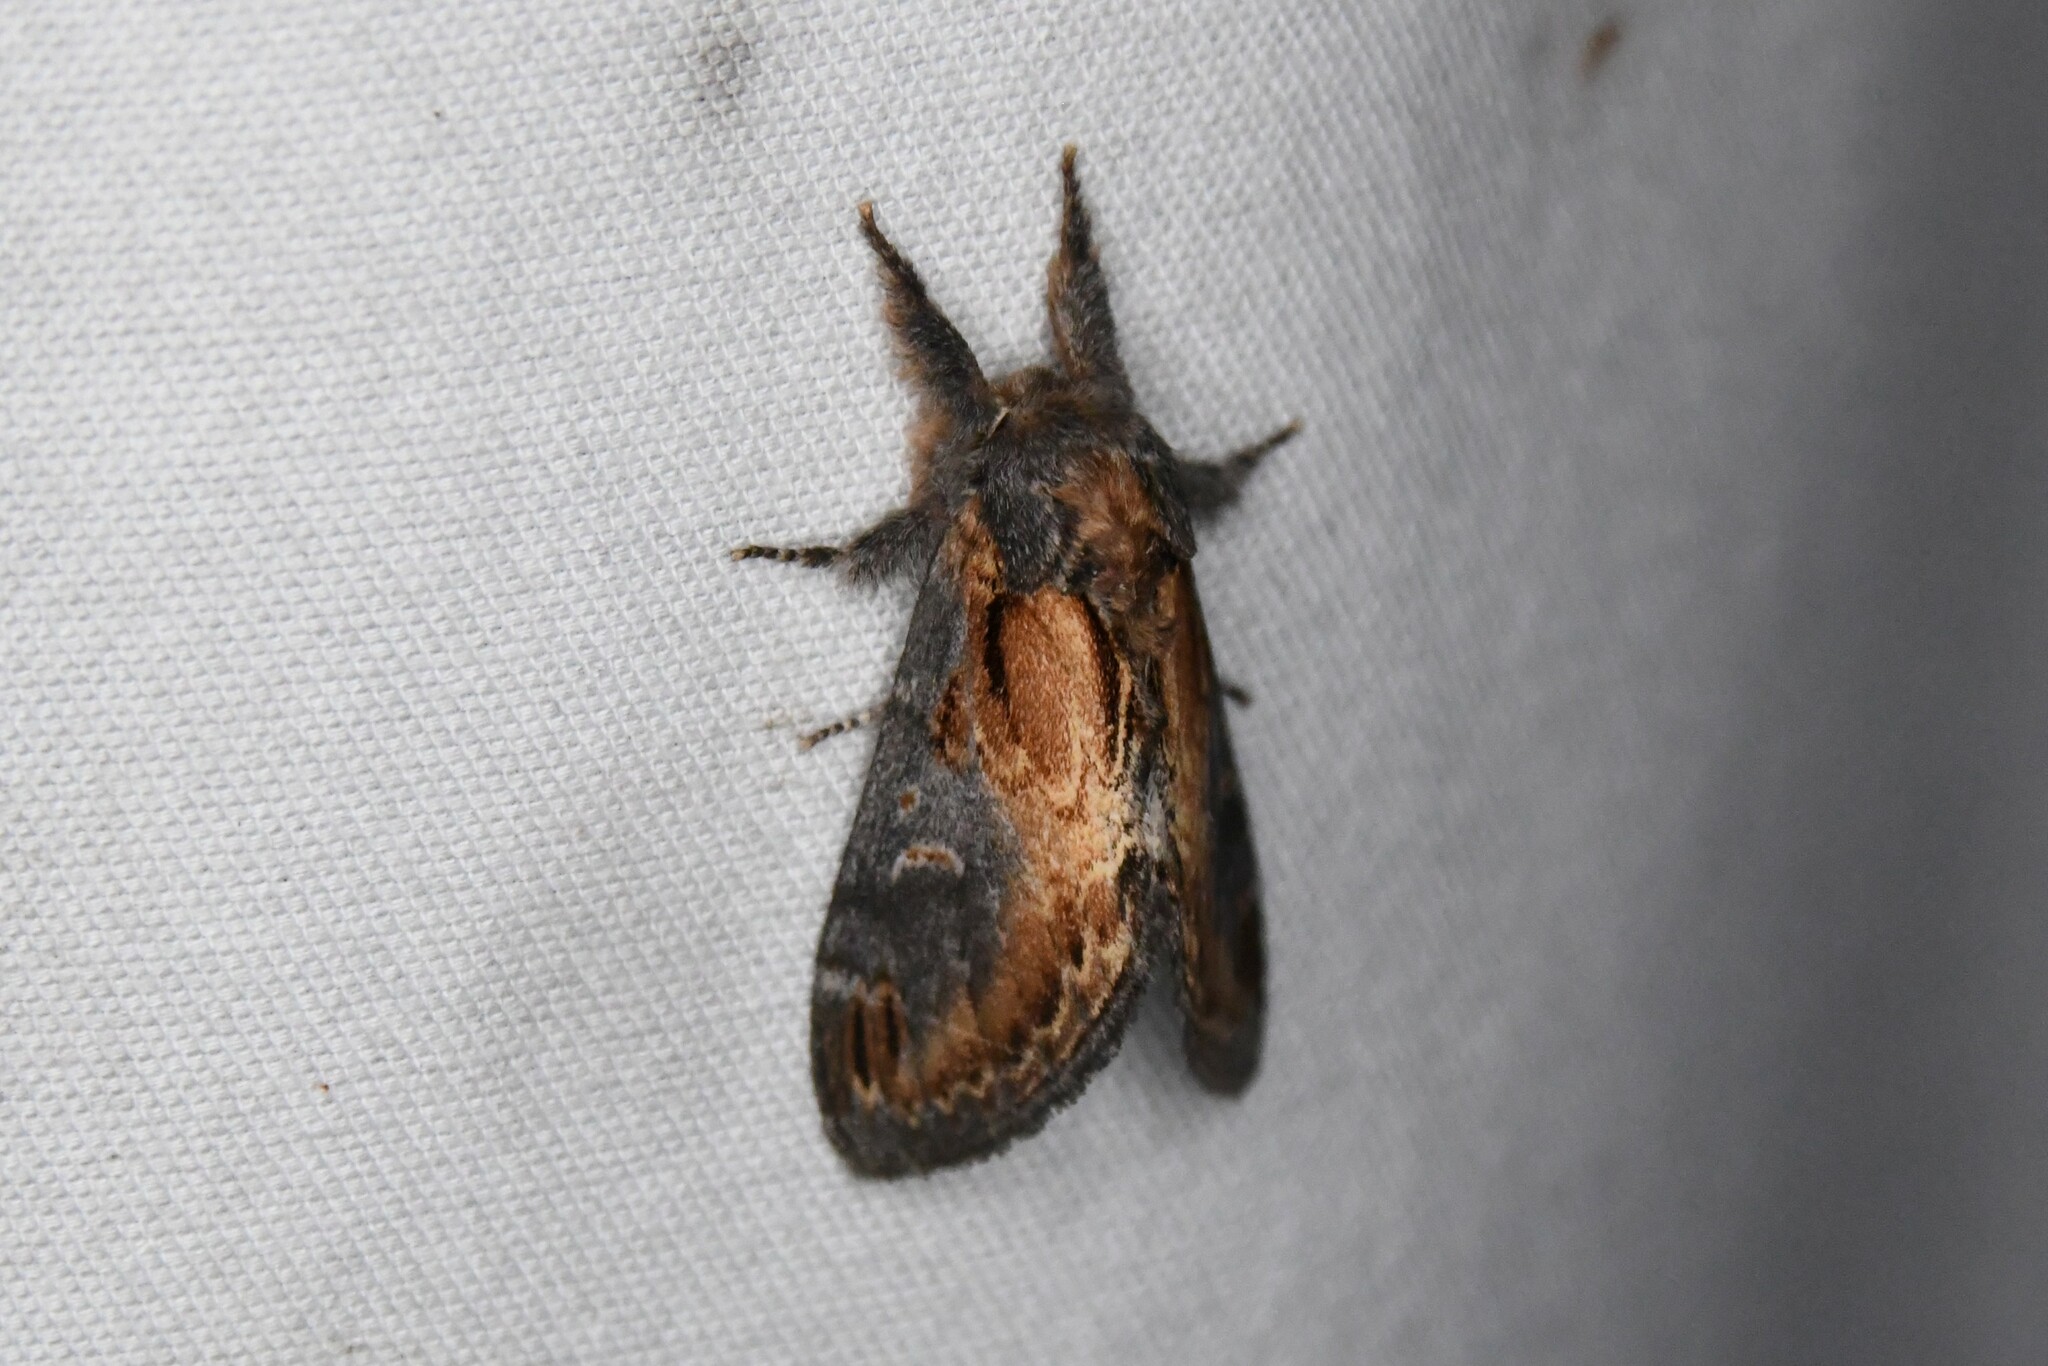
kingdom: Animalia
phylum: Arthropoda
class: Insecta
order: Lepidoptera
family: Notodontidae
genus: Notodonta
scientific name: Notodonta scitipennis
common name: Finned-willow prominent moth
